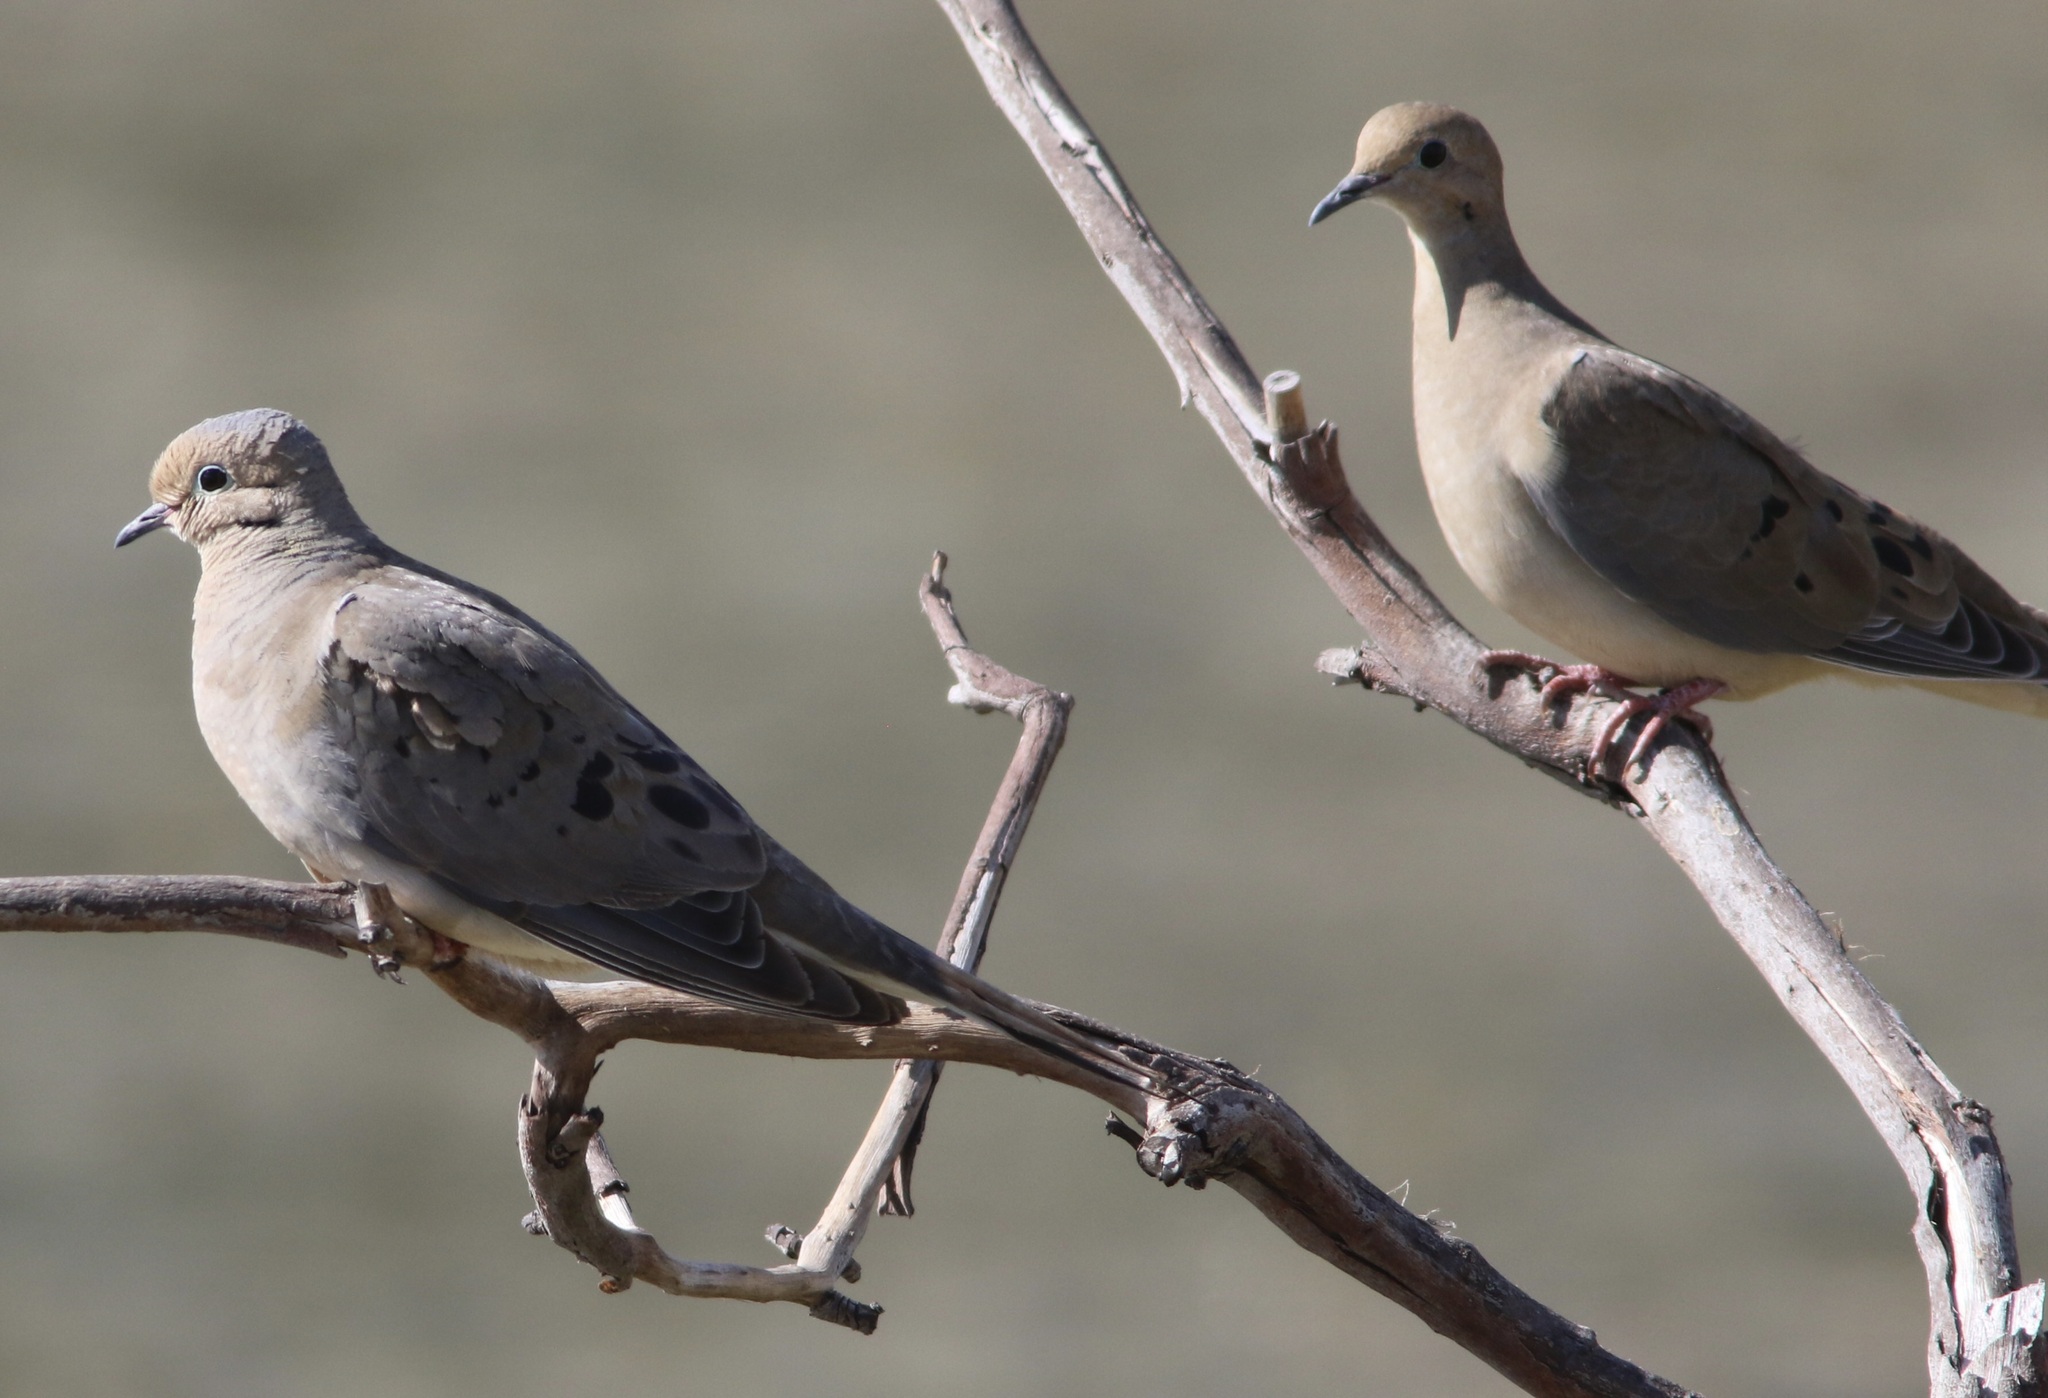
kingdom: Animalia
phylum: Chordata
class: Aves
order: Columbiformes
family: Columbidae
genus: Zenaida
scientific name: Zenaida macroura
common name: Mourning dove
